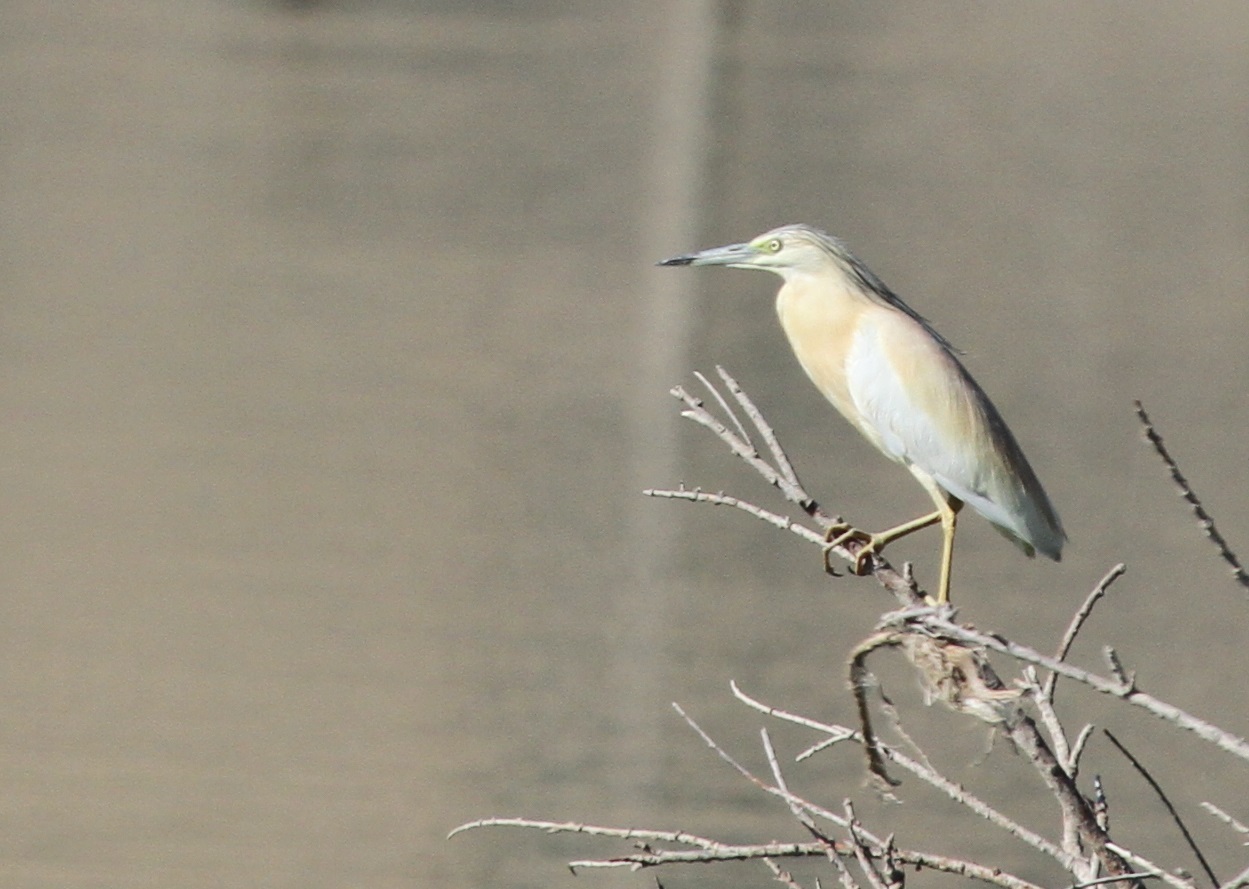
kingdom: Animalia
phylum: Chordata
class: Aves
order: Pelecaniformes
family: Ardeidae
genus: Ardeola
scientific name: Ardeola ralloides
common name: Squacco heron
